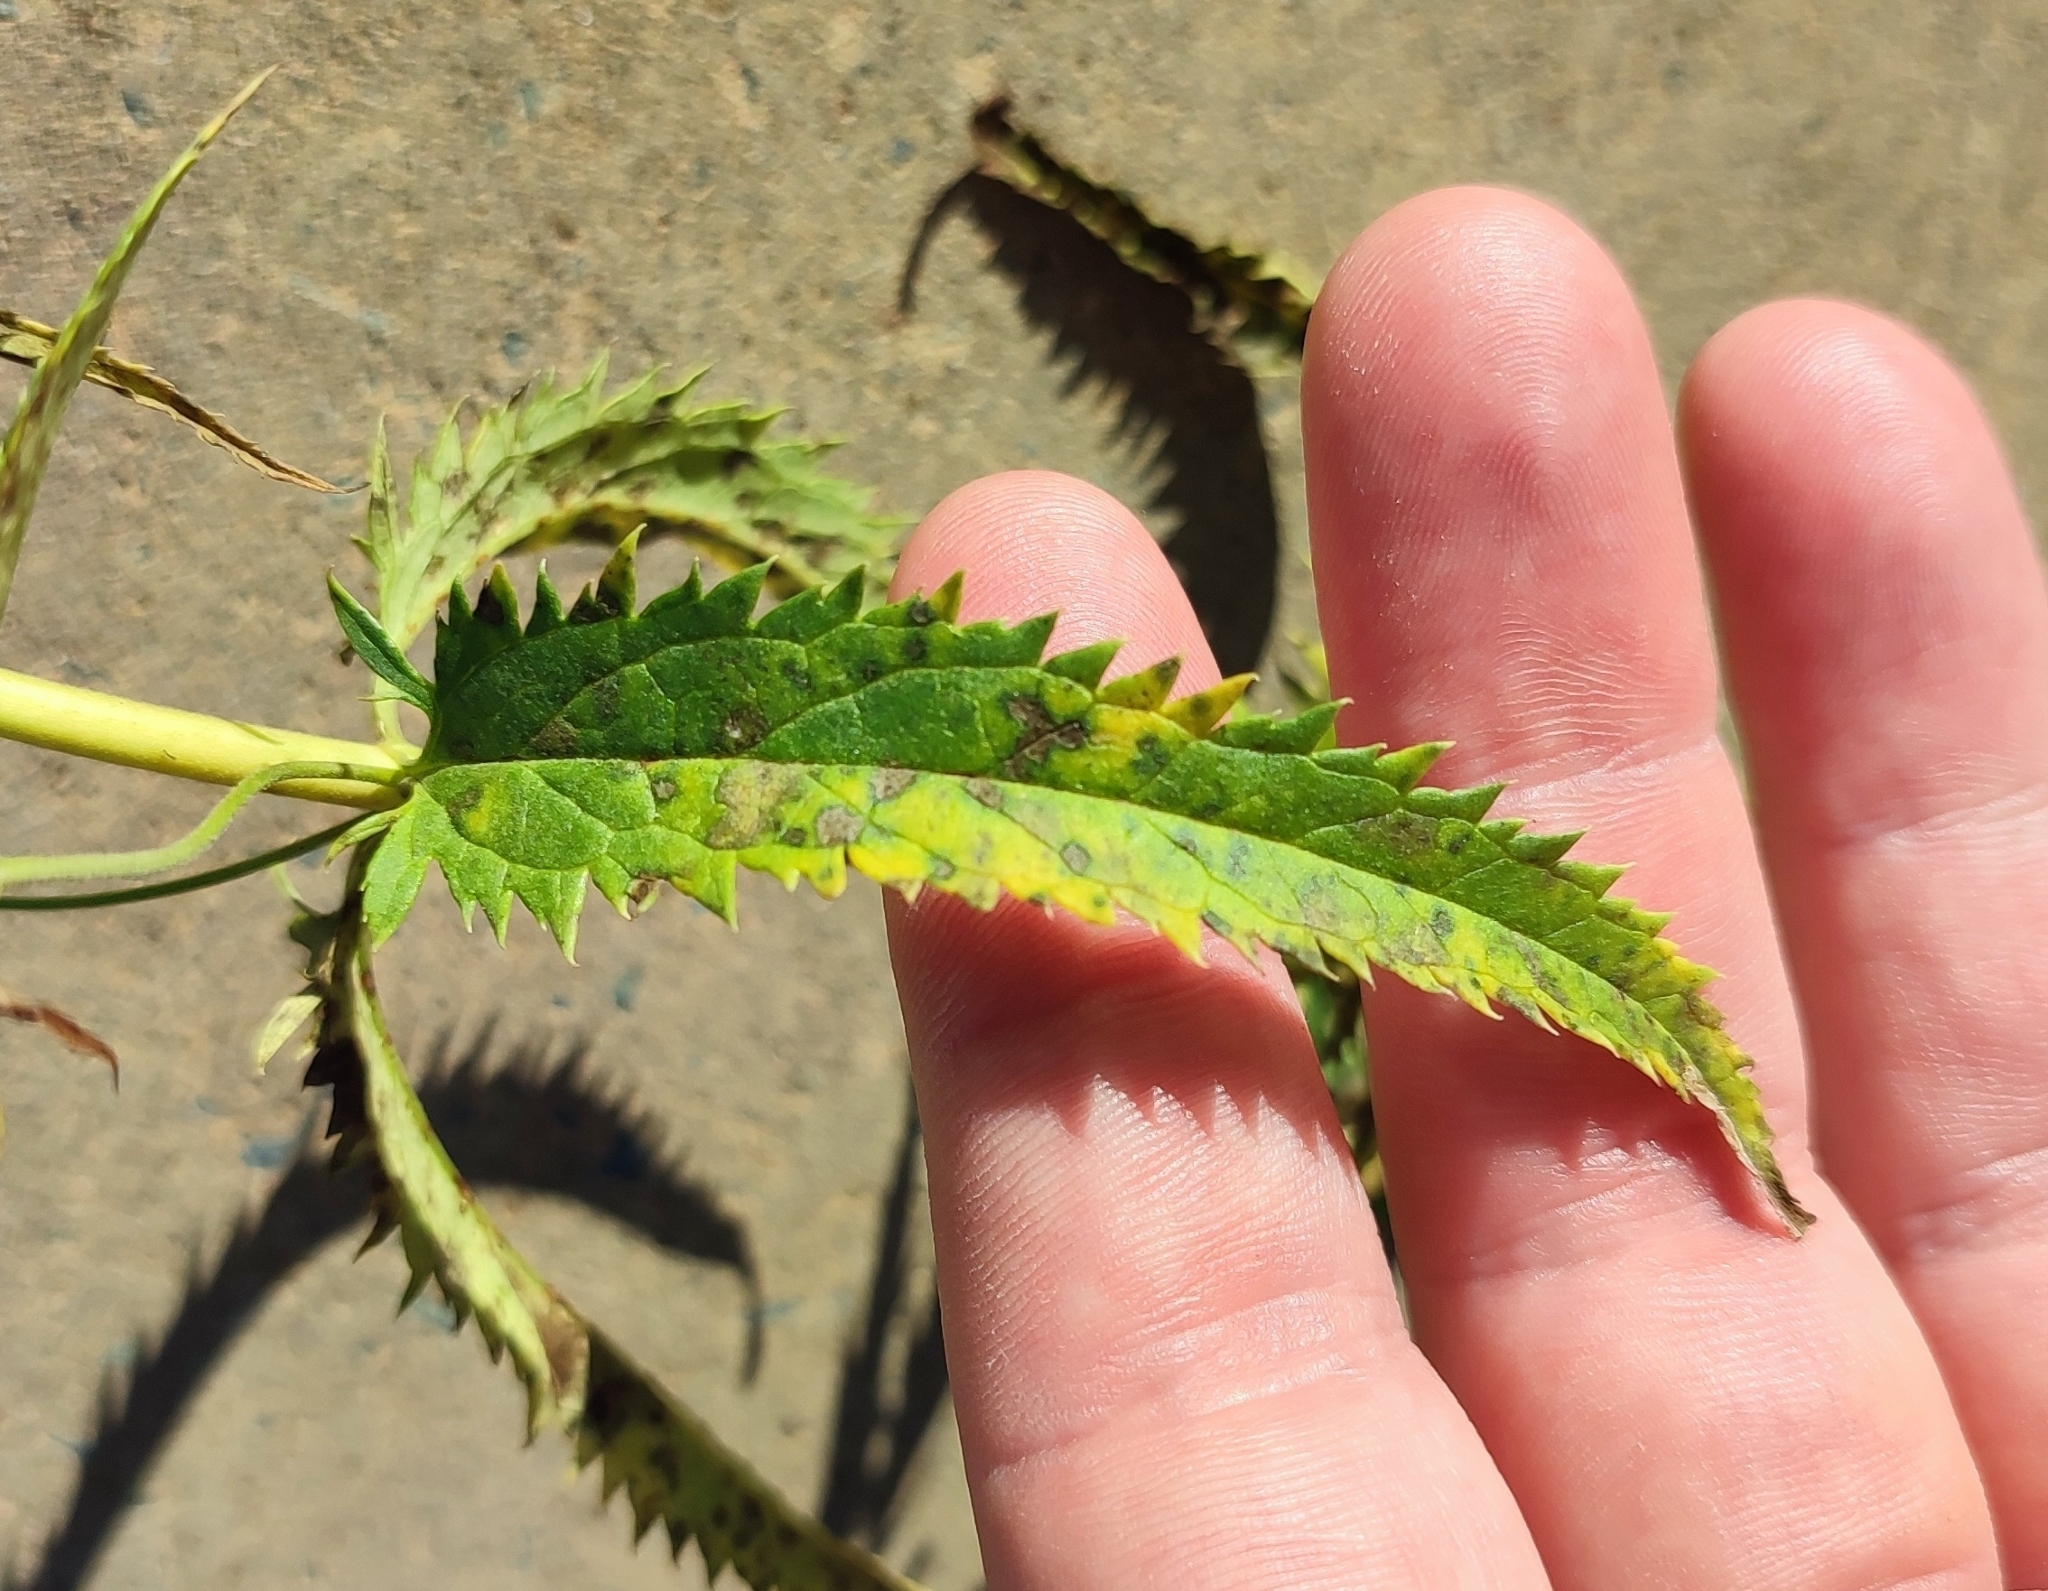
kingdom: Plantae
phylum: Tracheophyta
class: Magnoliopsida
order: Lamiales
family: Plantaginaceae
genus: Veronica
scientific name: Veronica longifolia
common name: Garden speedwell
